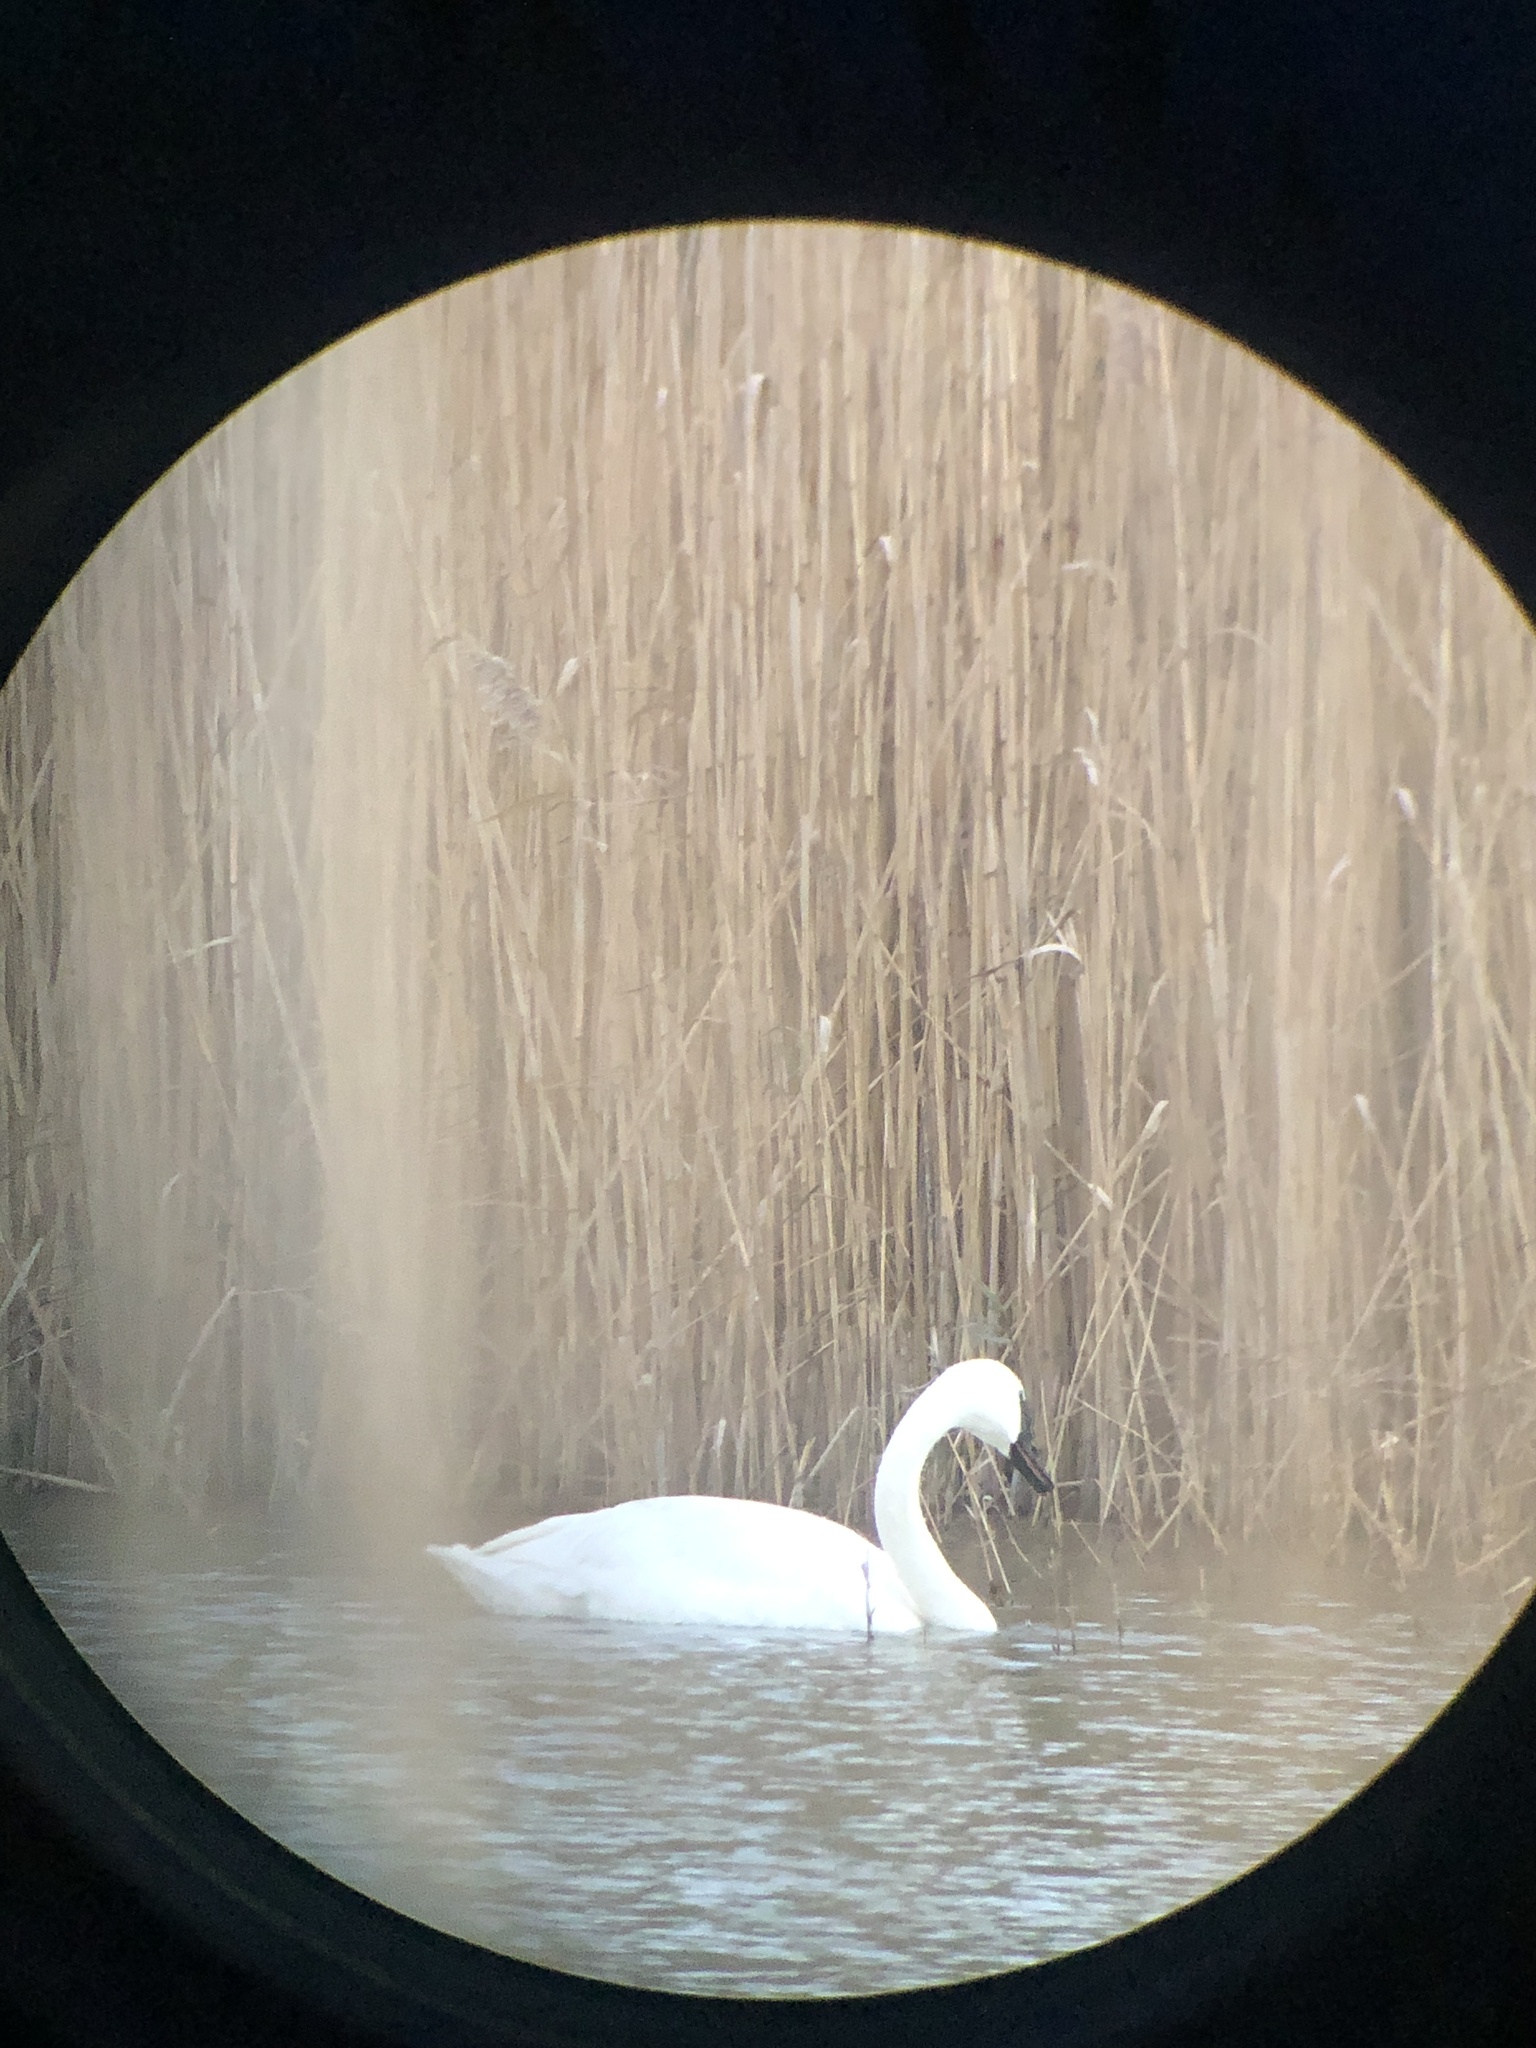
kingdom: Animalia
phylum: Chordata
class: Aves
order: Anseriformes
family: Anatidae
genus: Cygnus
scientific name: Cygnus buccinator
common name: Trumpeter swan
